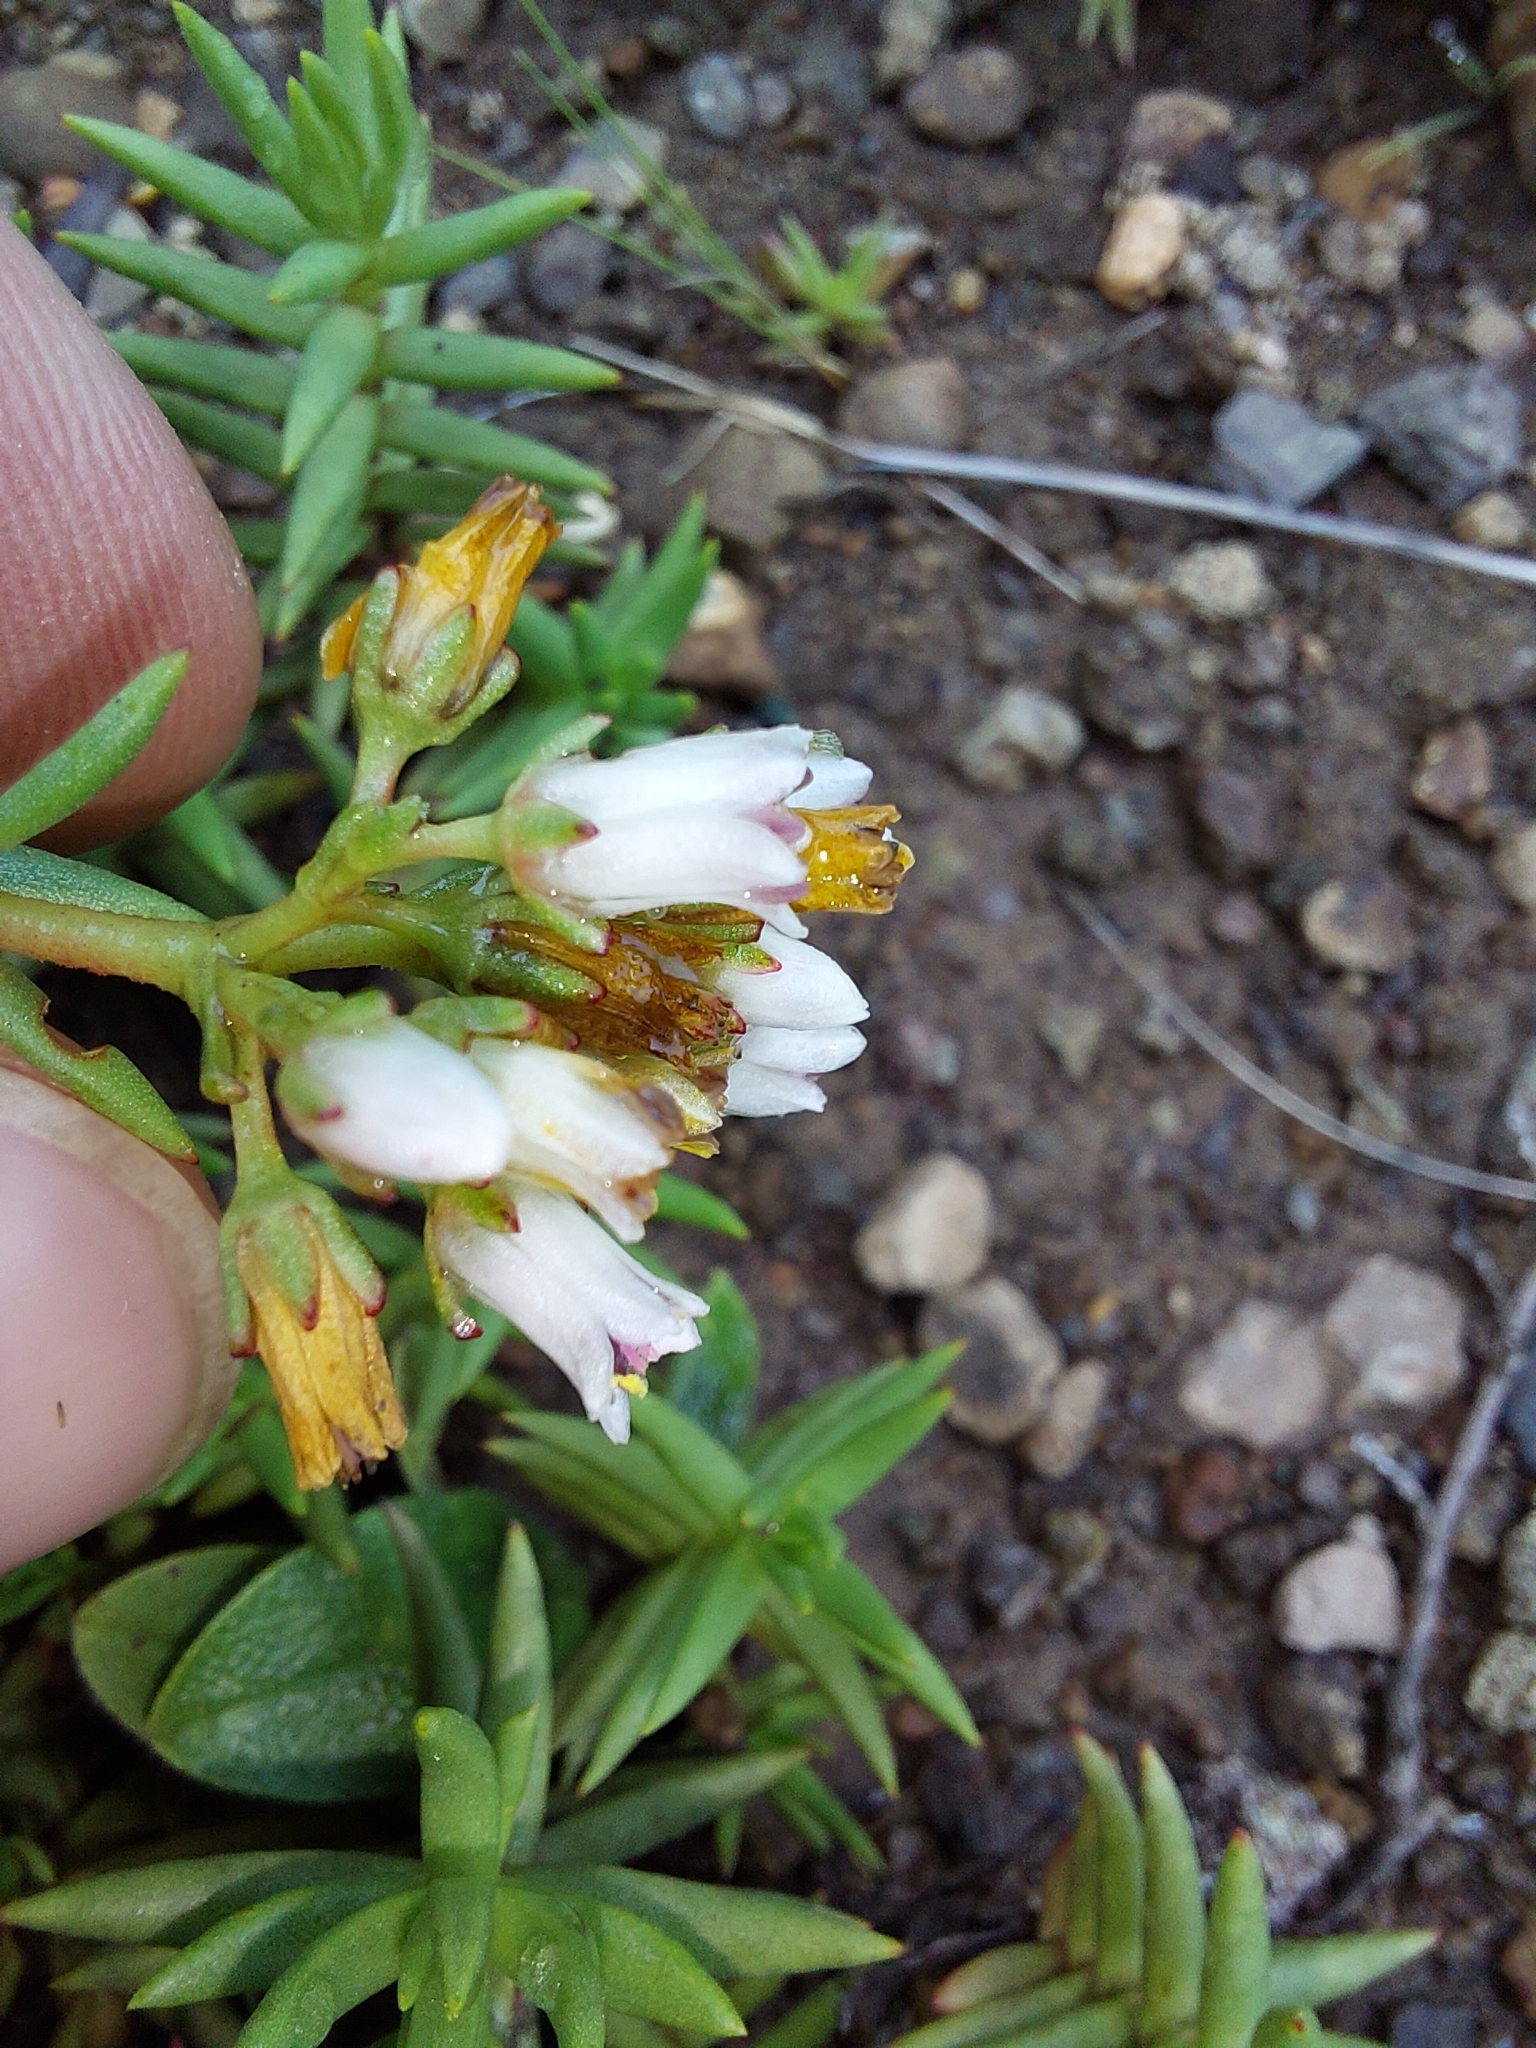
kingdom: Plantae
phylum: Tracheophyta
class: Magnoliopsida
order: Saxifragales
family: Crassulaceae
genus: Crassula
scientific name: Crassula dependens
